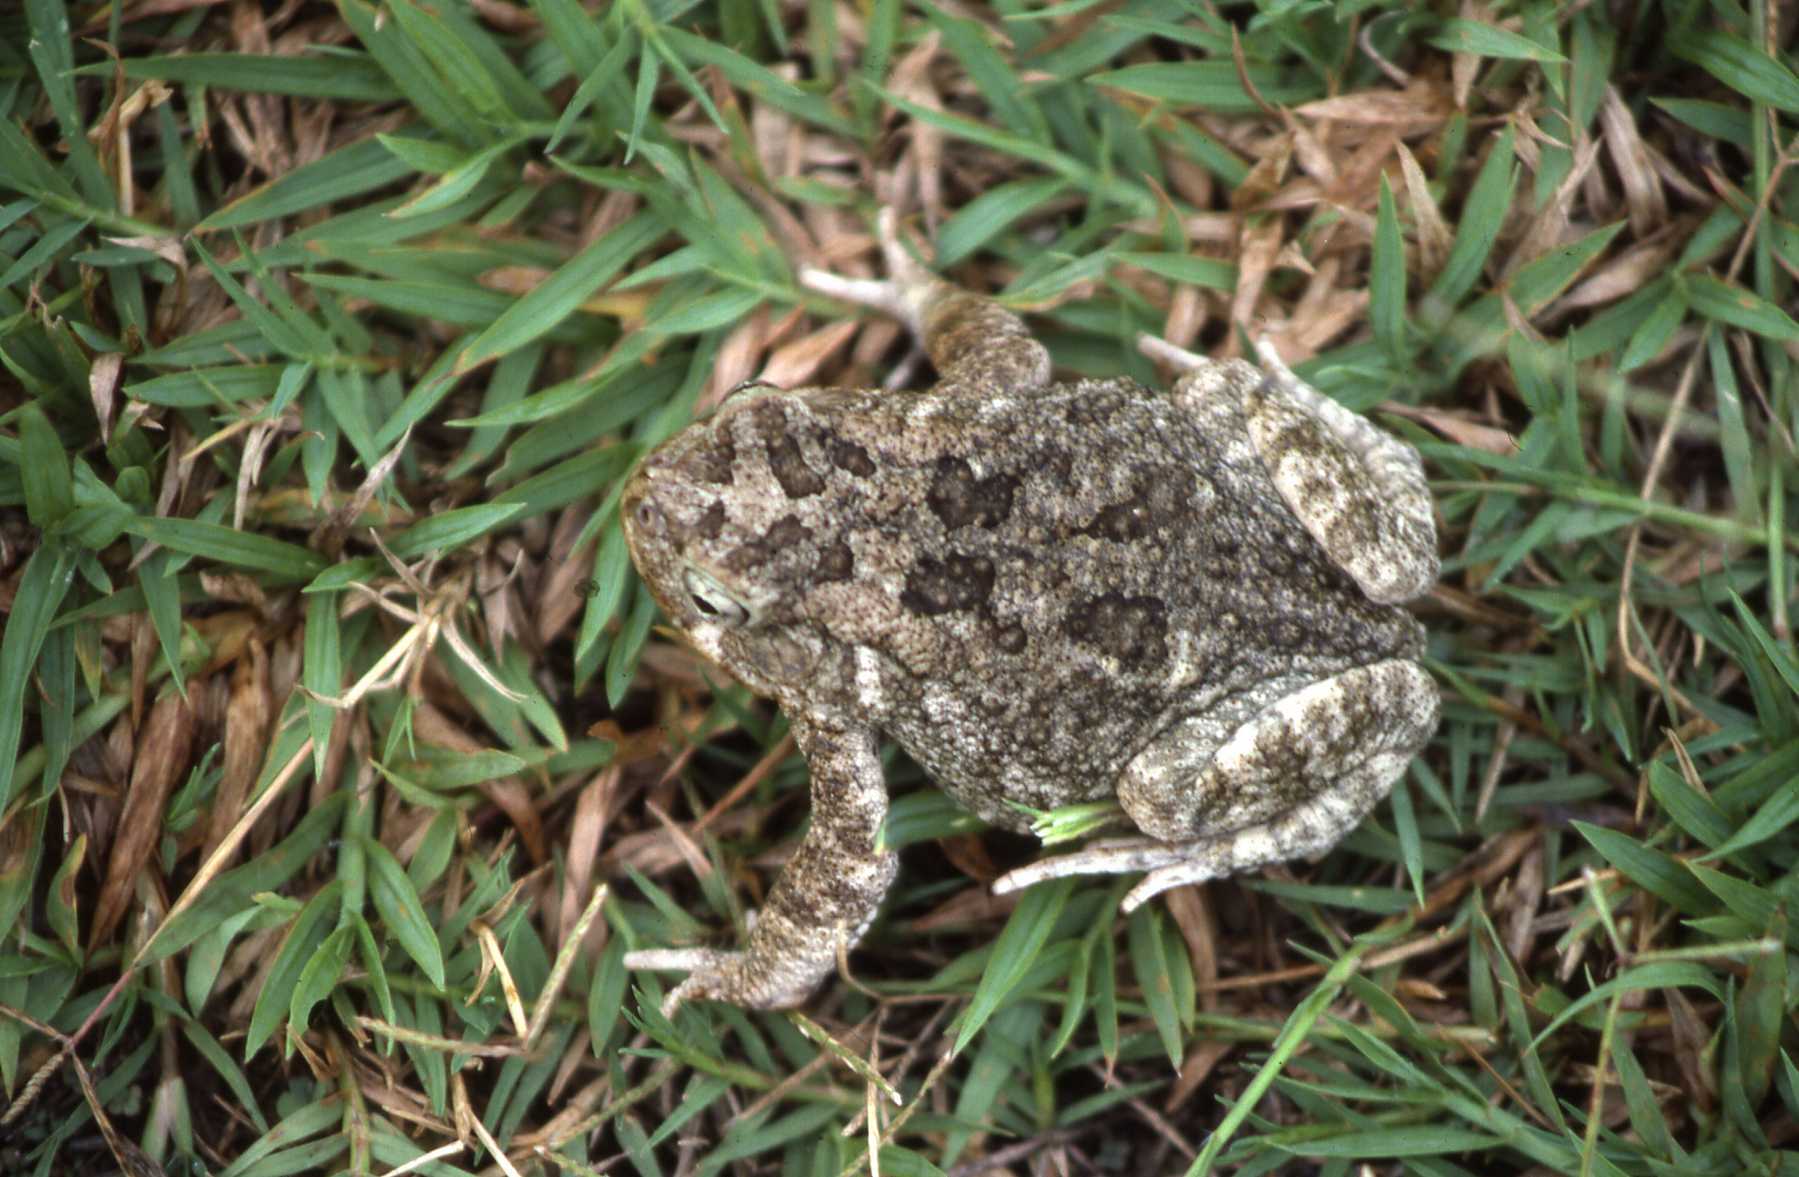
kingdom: Animalia
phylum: Chordata
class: Amphibia
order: Anura
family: Bufonidae
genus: Sclerophrys
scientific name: Sclerophrys gutturalis
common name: African common toad
